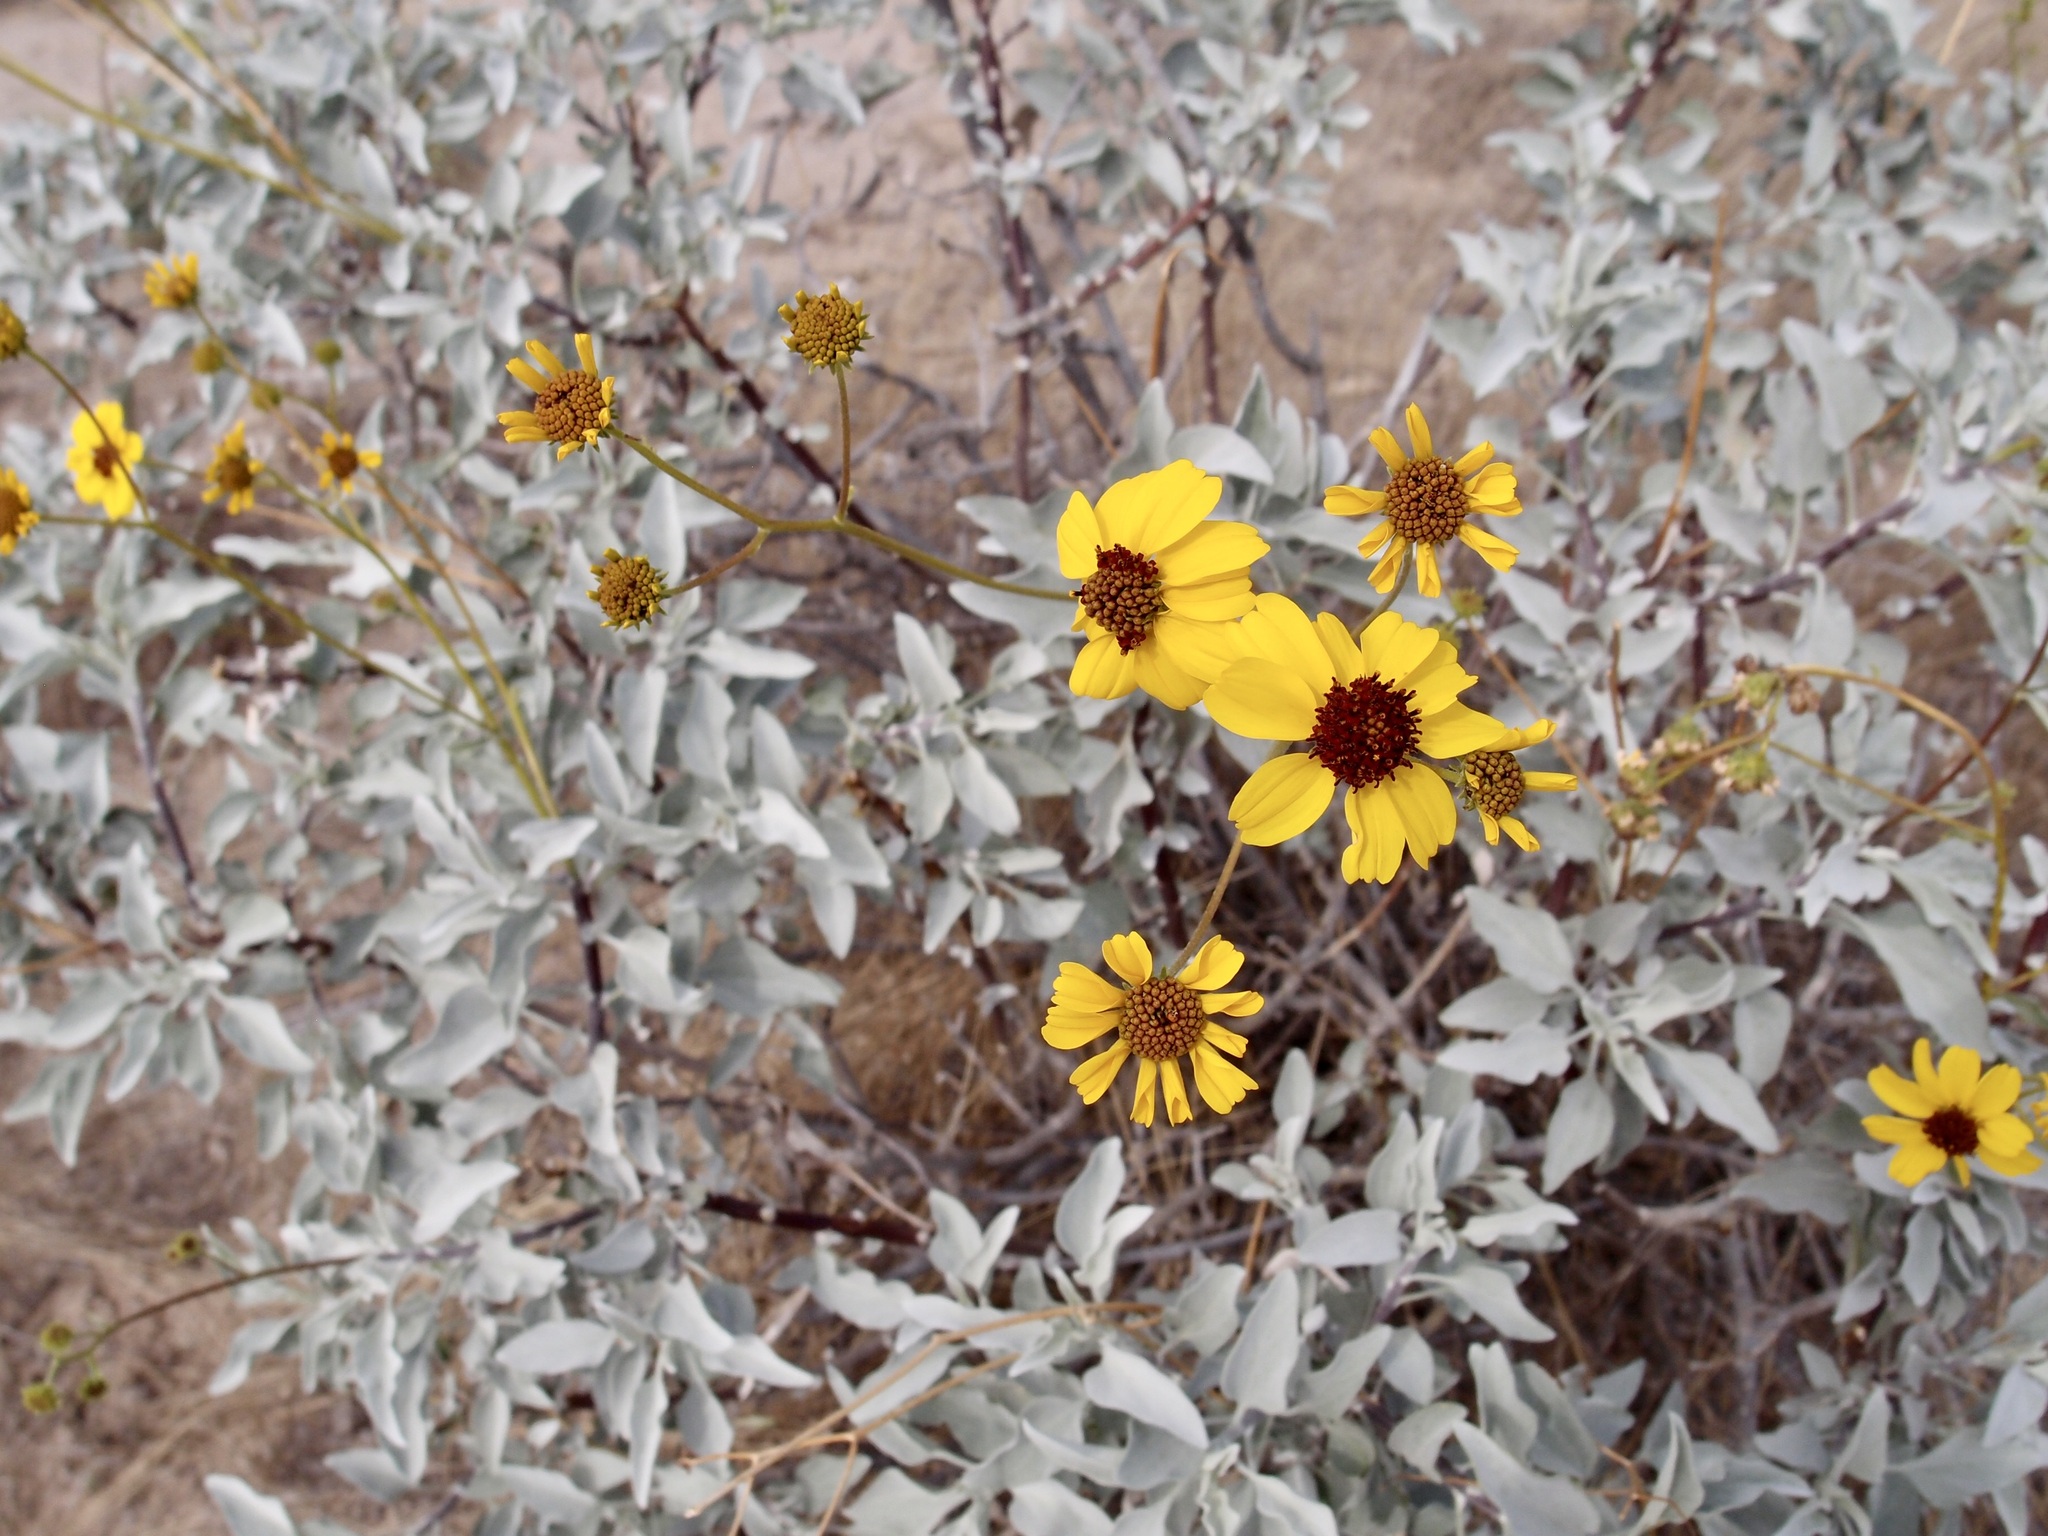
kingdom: Plantae
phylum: Tracheophyta
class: Magnoliopsida
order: Asterales
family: Asteraceae
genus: Encelia
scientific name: Encelia farinosa
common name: Brittlebush
